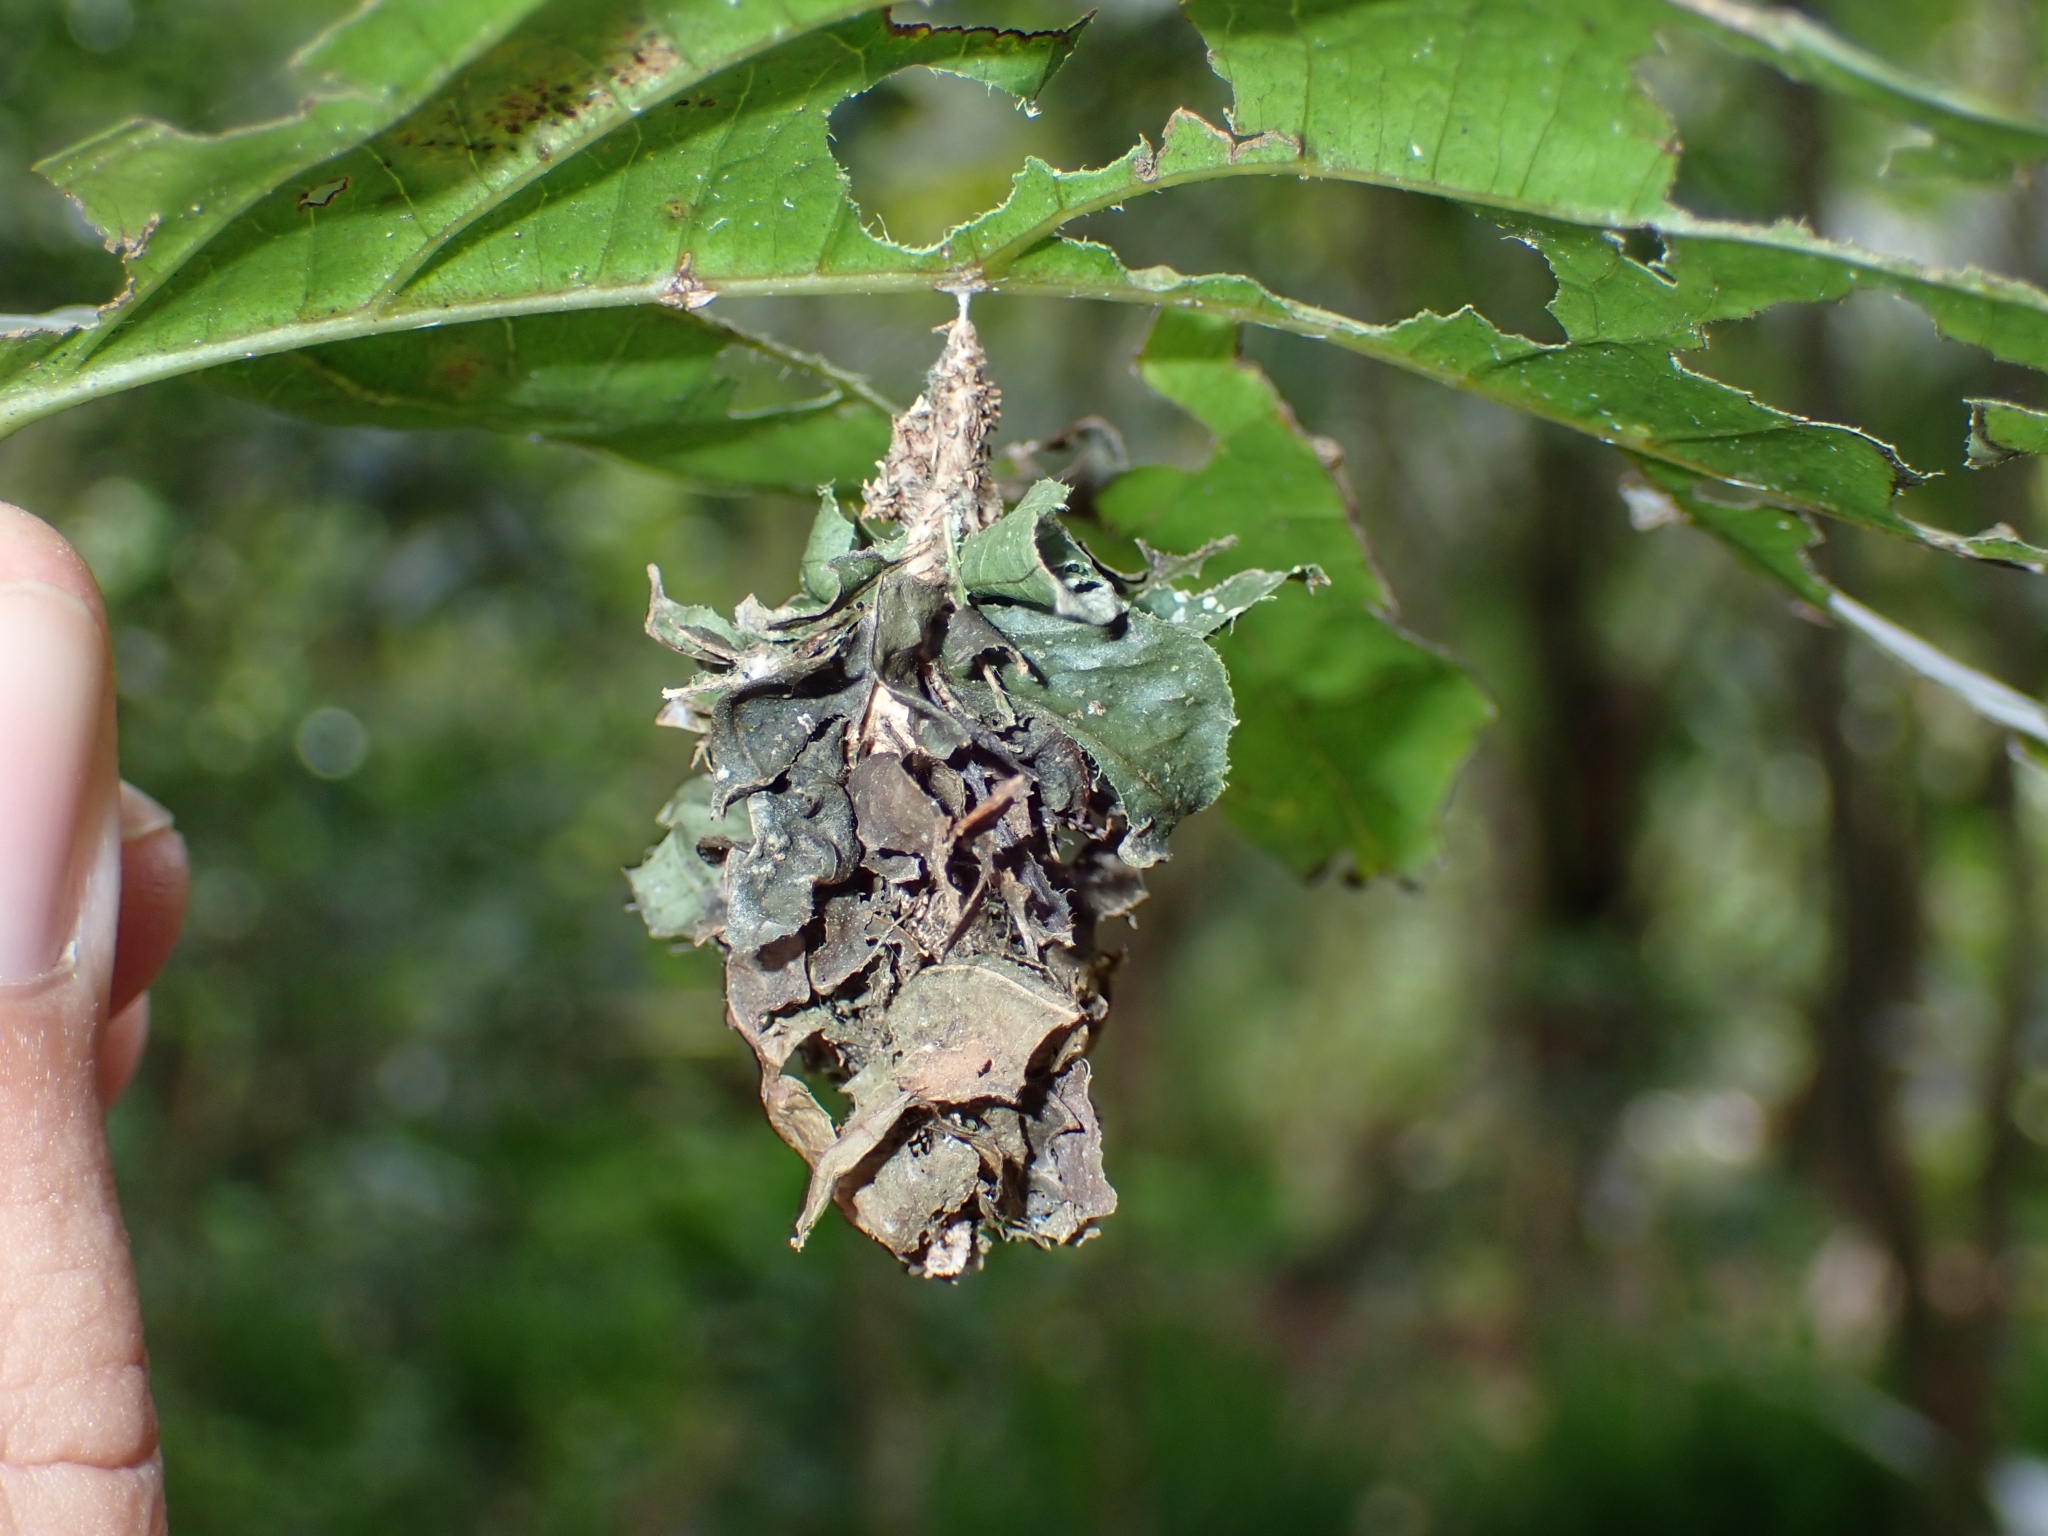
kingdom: Animalia
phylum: Arthropoda
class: Insecta
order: Lepidoptera
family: Psychidae
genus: Metura
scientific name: Metura oceanica
